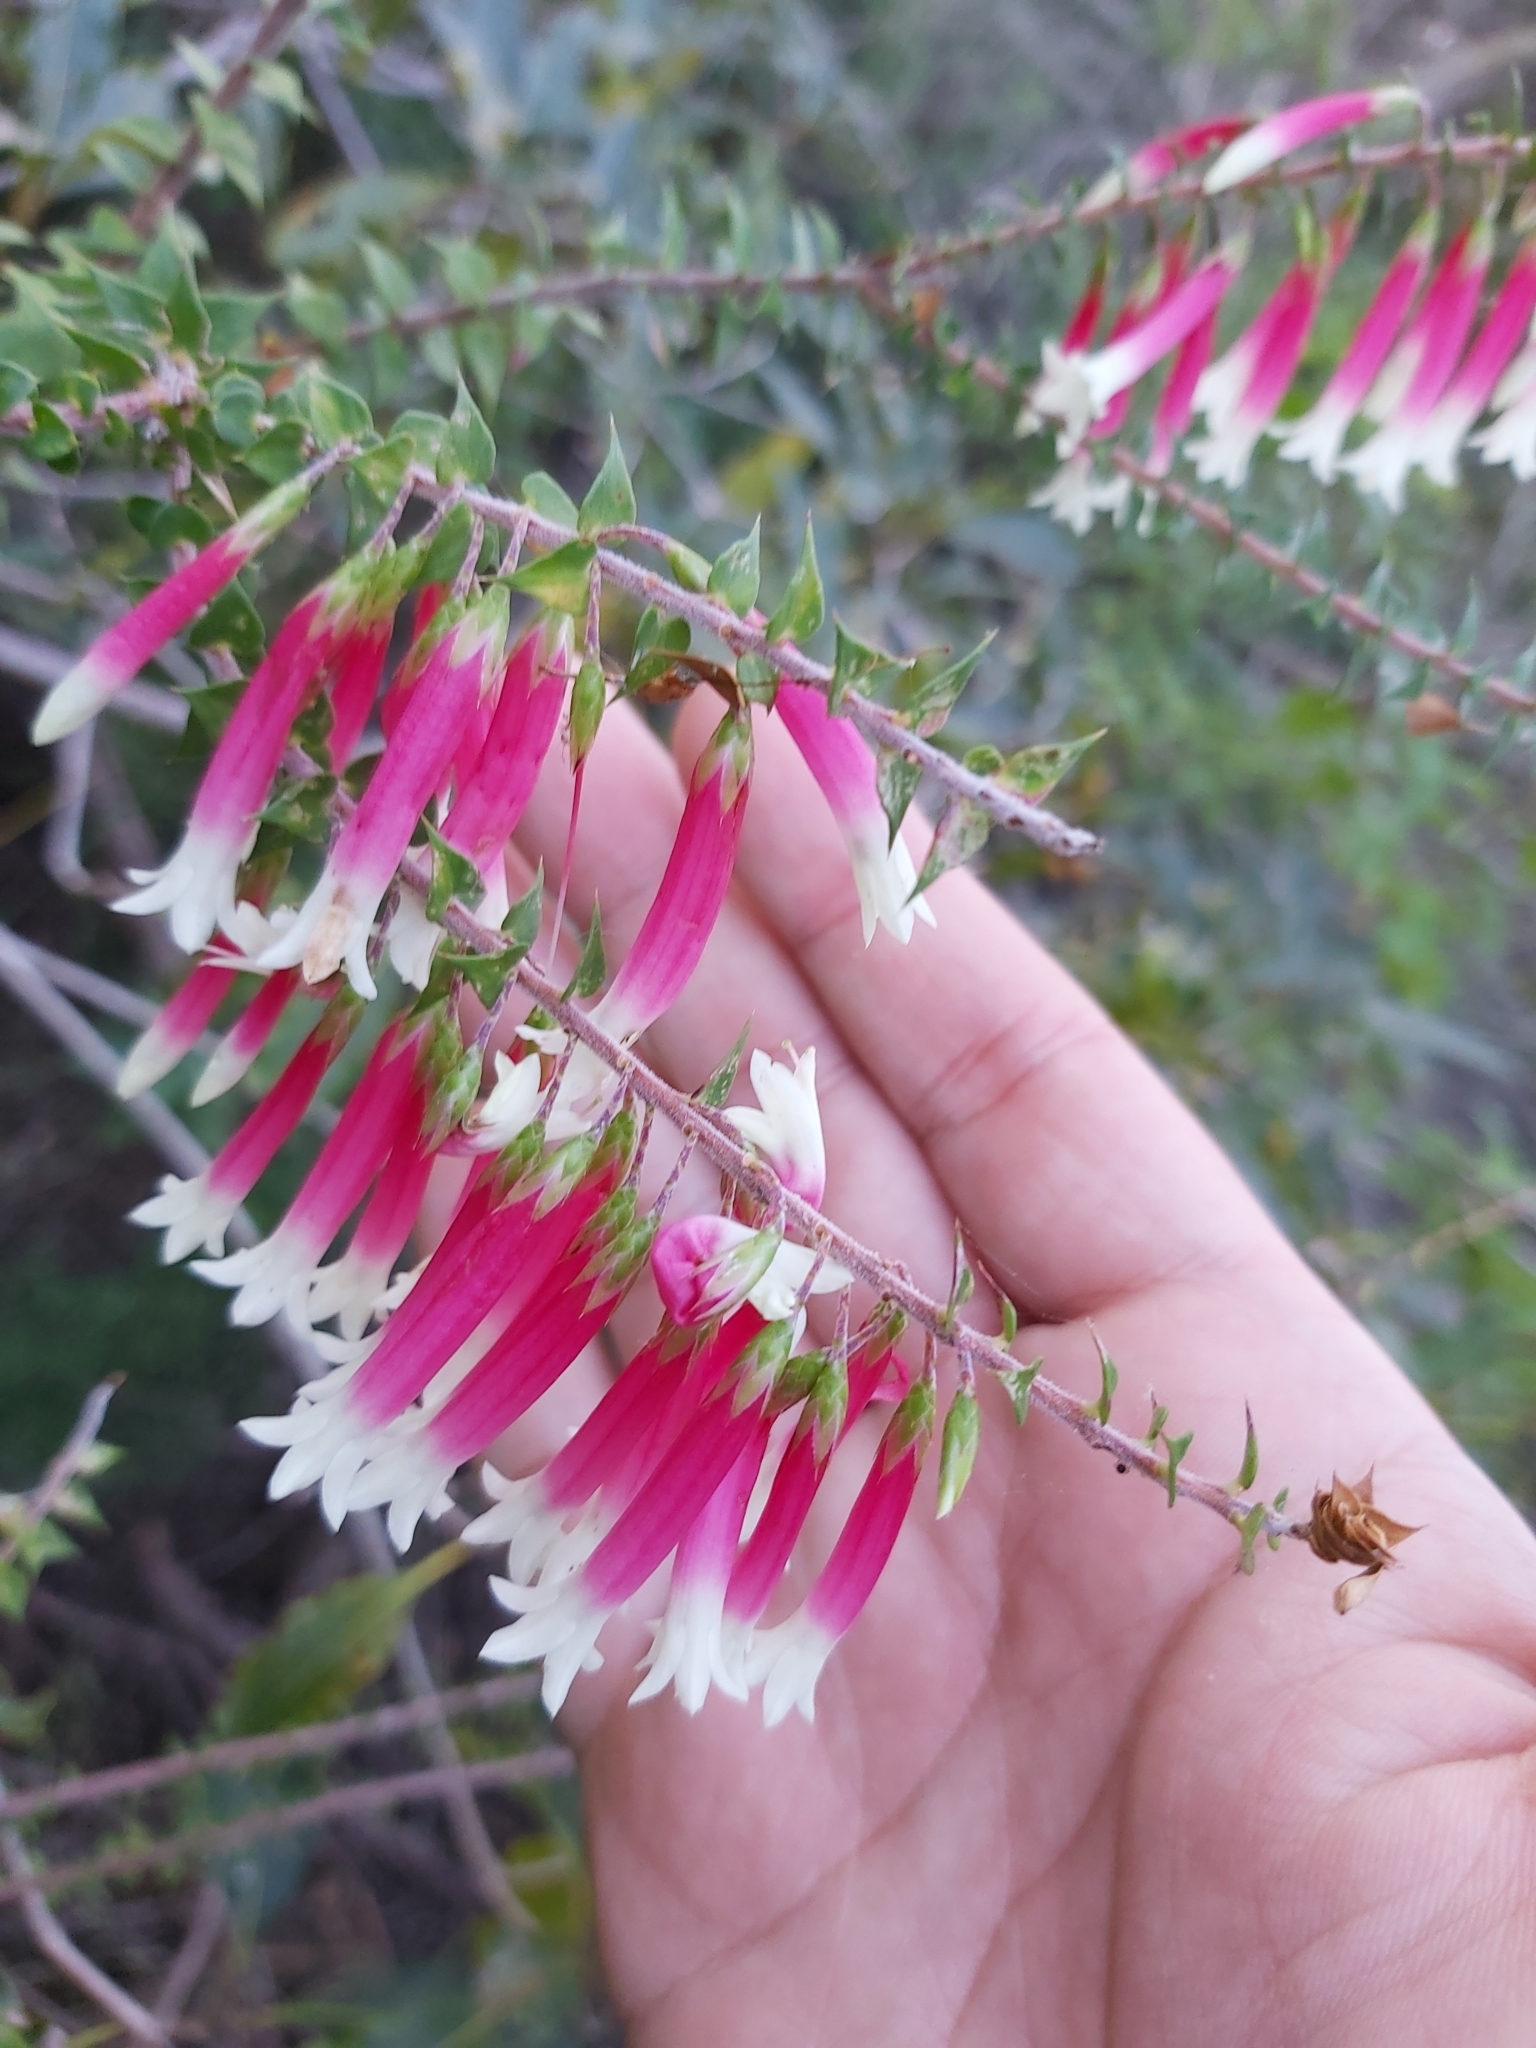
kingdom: Plantae
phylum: Tracheophyta
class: Magnoliopsida
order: Ericales
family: Ericaceae
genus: Epacris
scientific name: Epacris longiflora
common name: Fuchsia-heath
